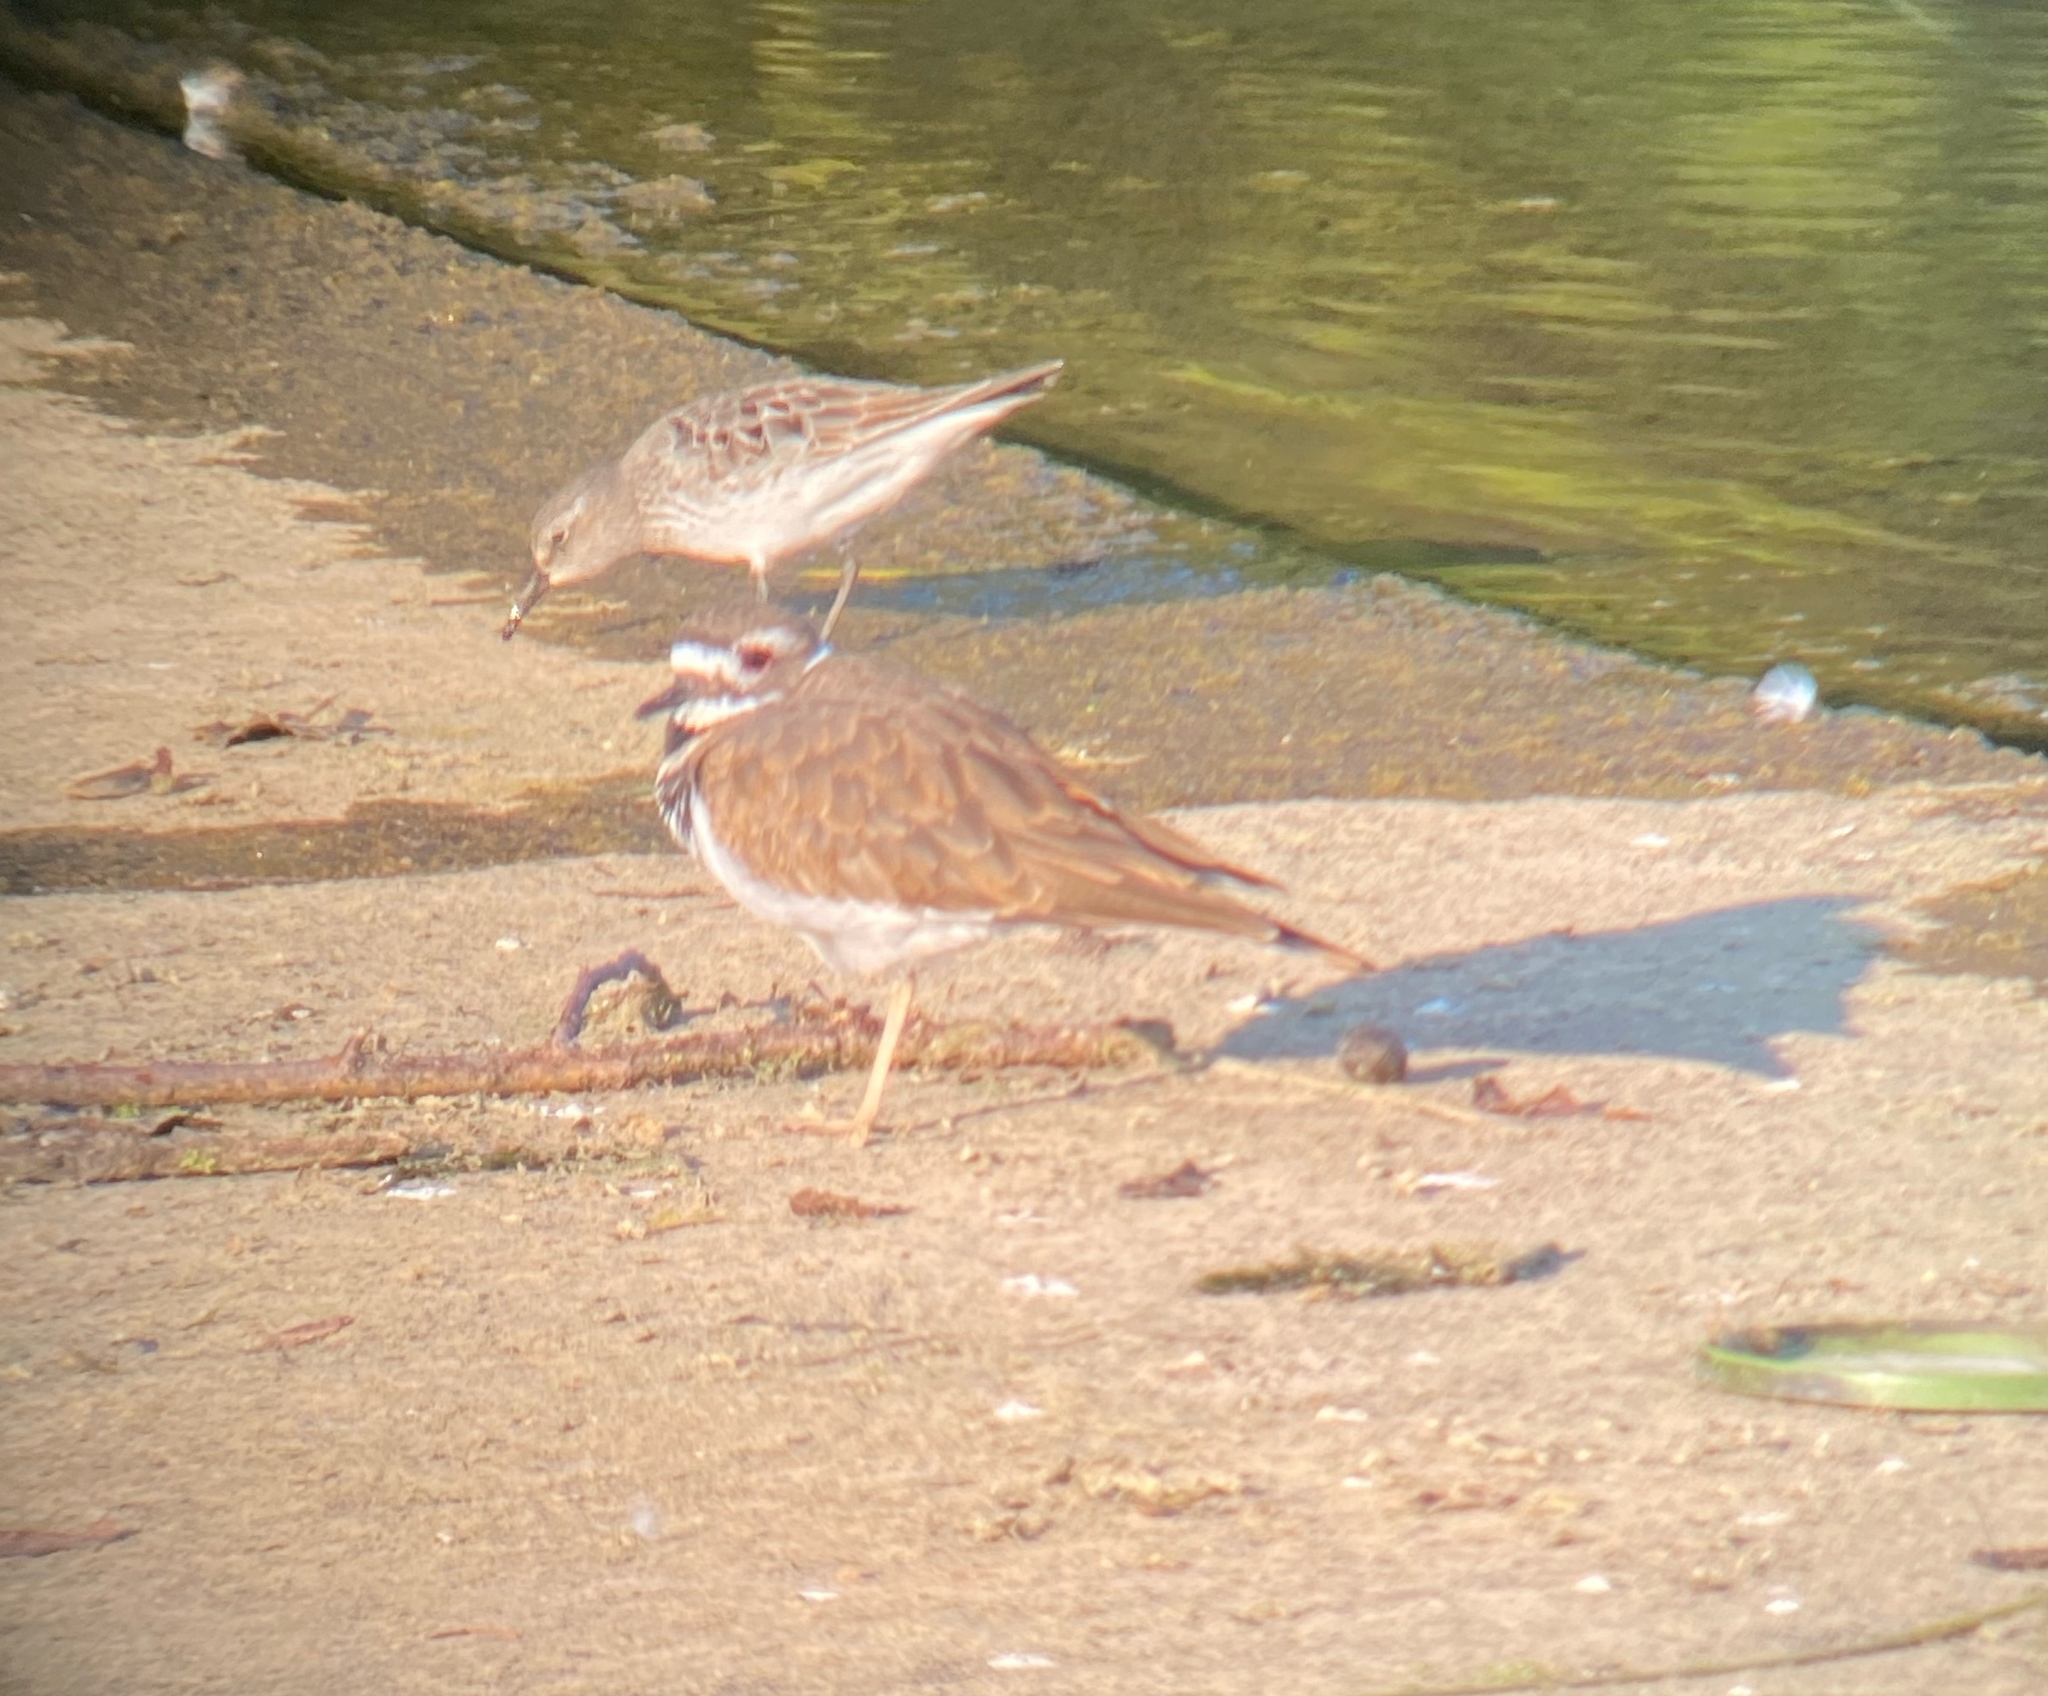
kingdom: Animalia
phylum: Chordata
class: Aves
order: Charadriiformes
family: Scolopacidae
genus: Calidris
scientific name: Calidris fuscicollis
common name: White-rumped sandpiper
